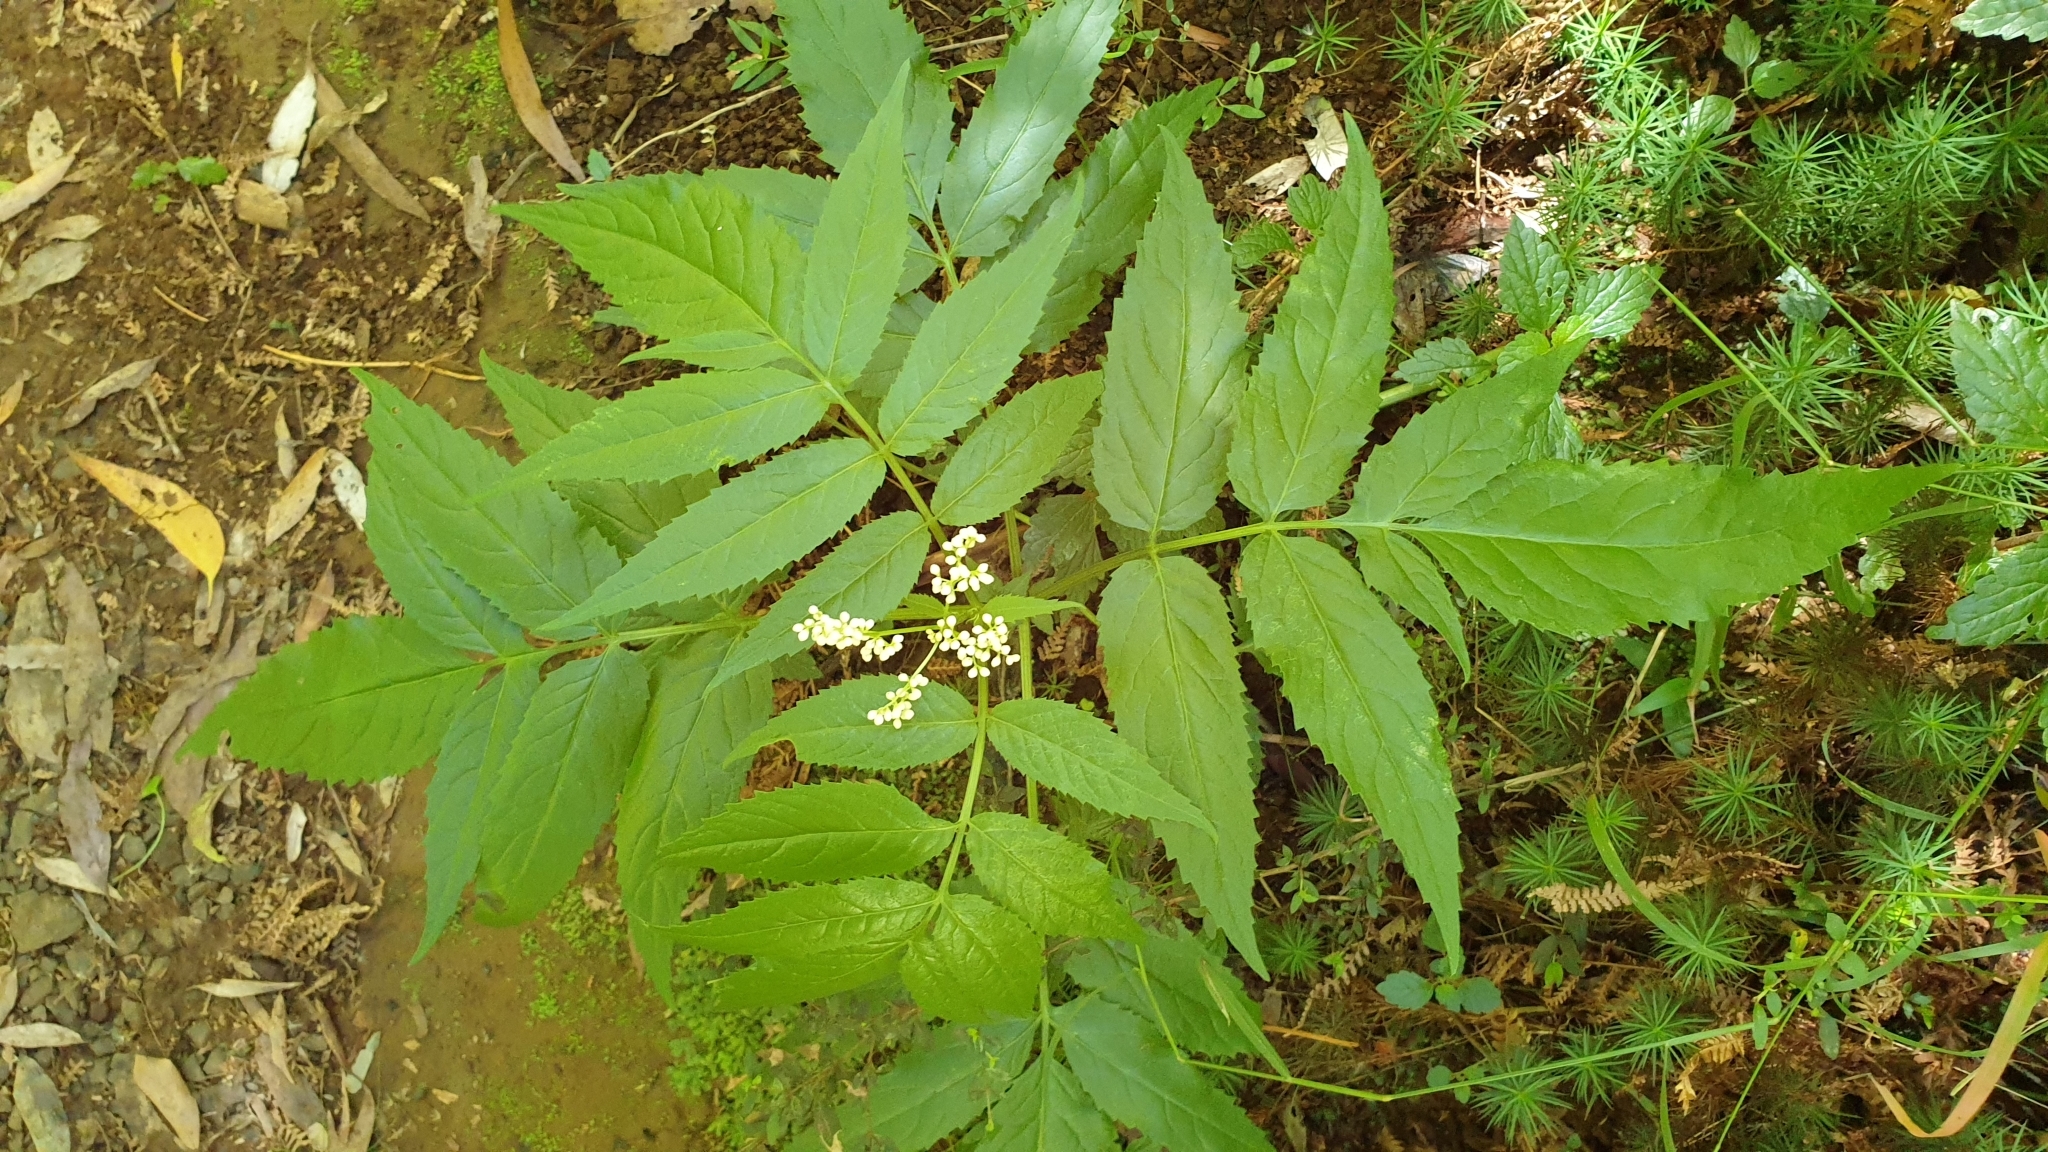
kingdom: Plantae
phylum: Tracheophyta
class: Magnoliopsida
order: Dipsacales
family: Viburnaceae
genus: Sambucus
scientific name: Sambucus gaudichaudiana
